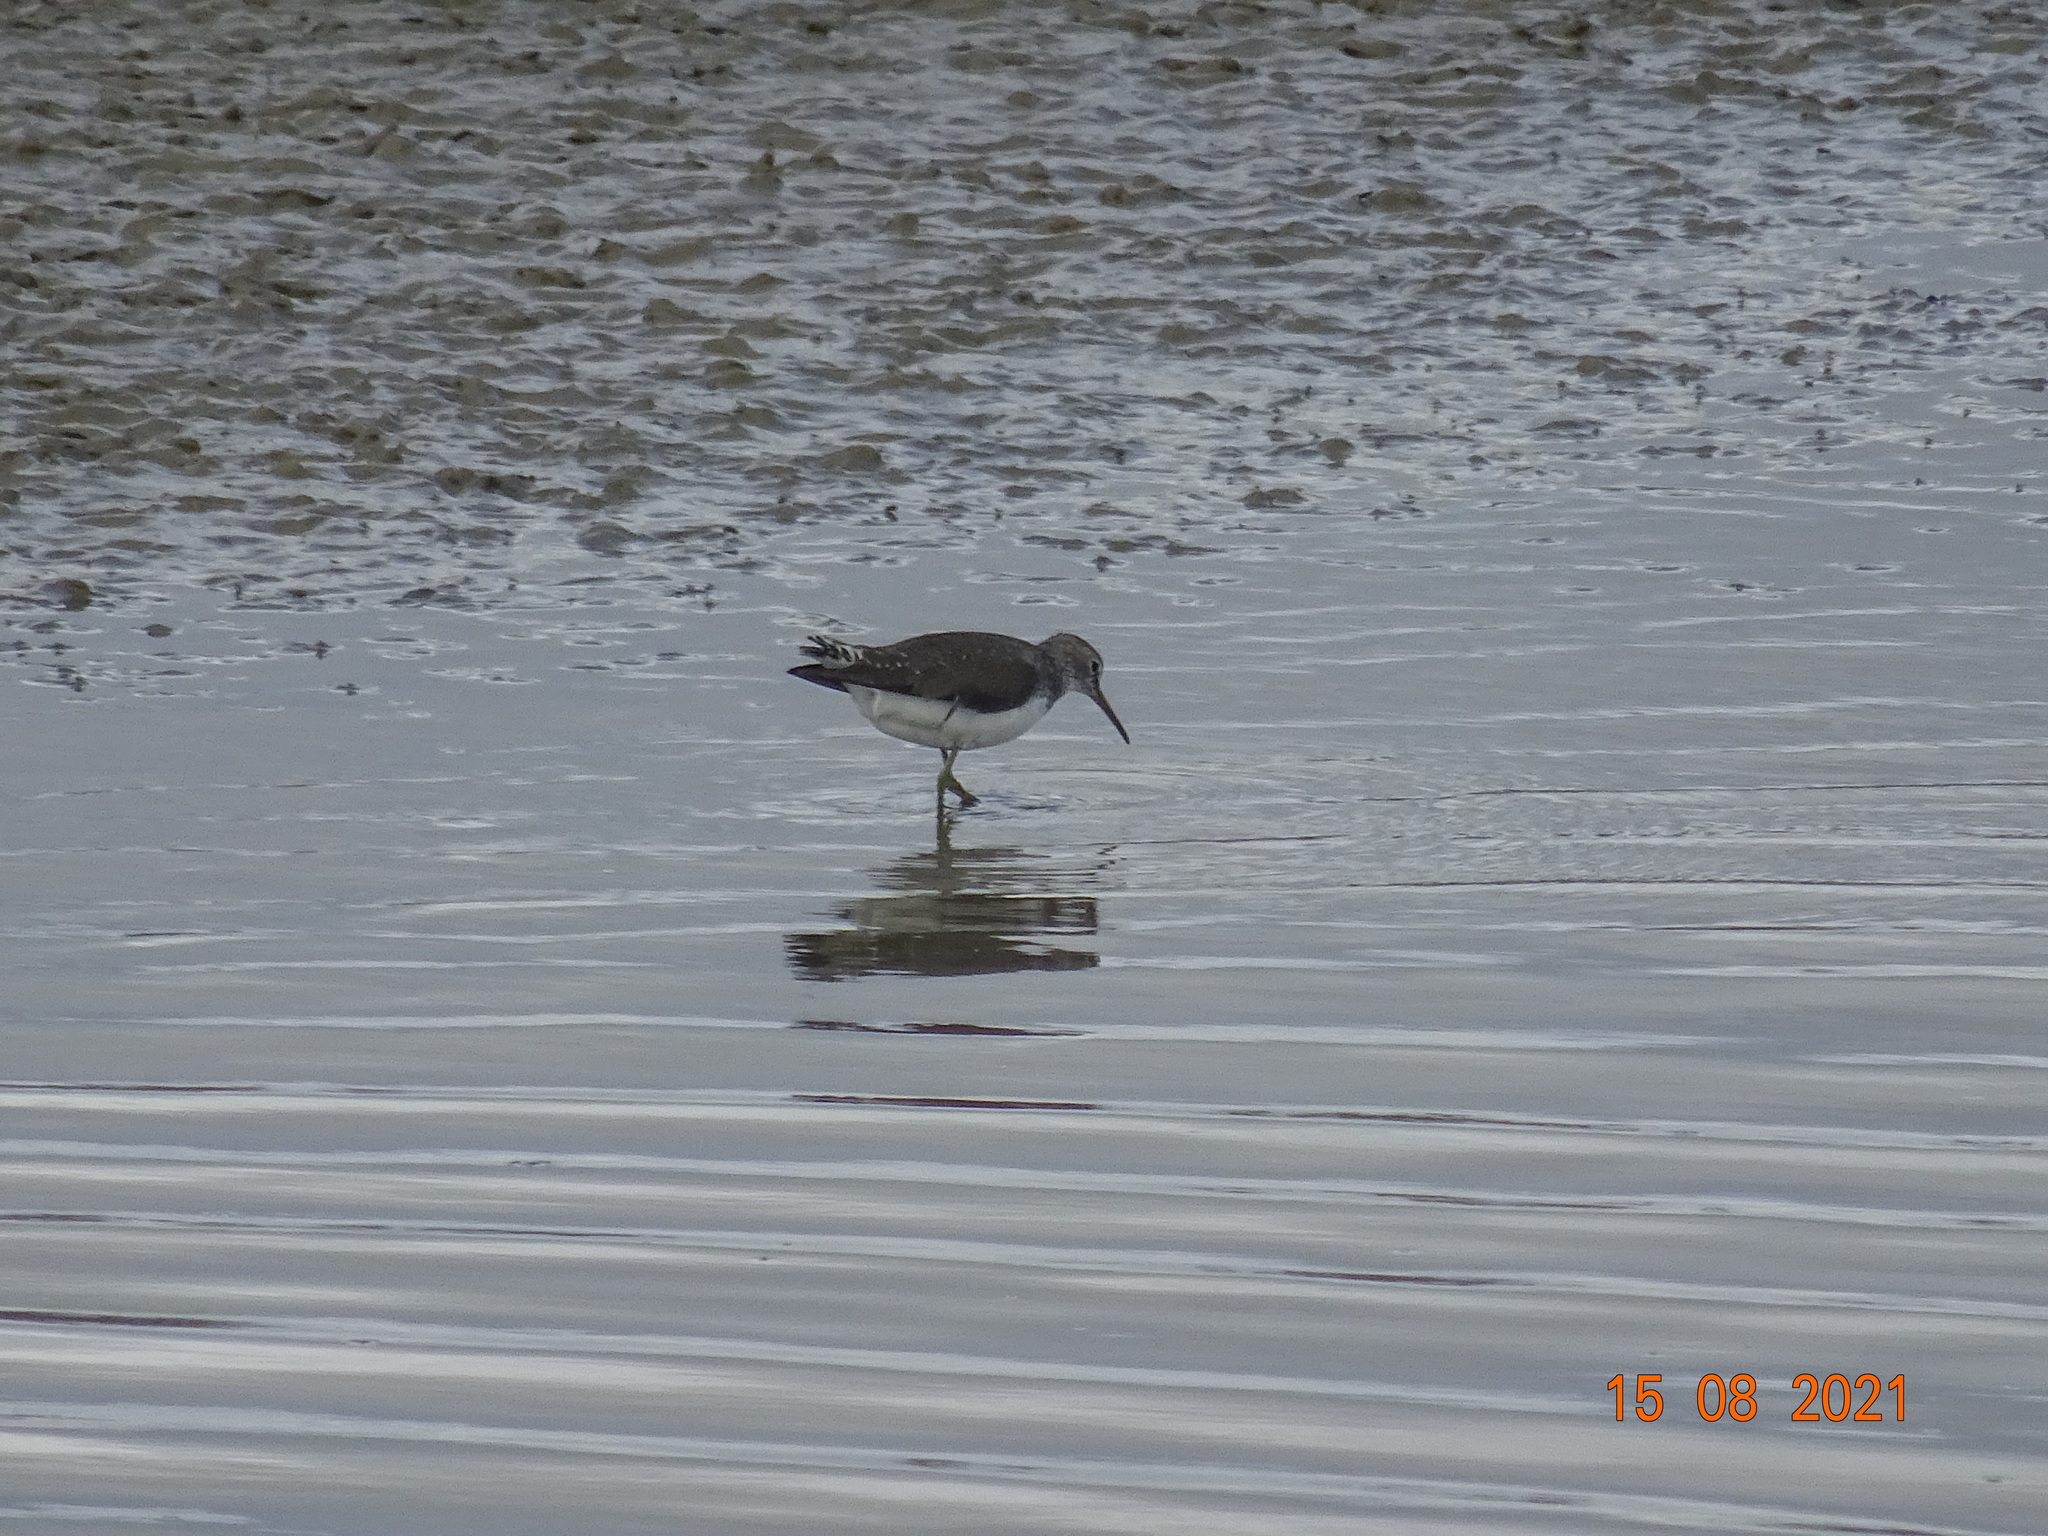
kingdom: Animalia
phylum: Chordata
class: Aves
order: Charadriiformes
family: Scolopacidae
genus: Tringa
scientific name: Tringa ochropus
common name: Green sandpiper
